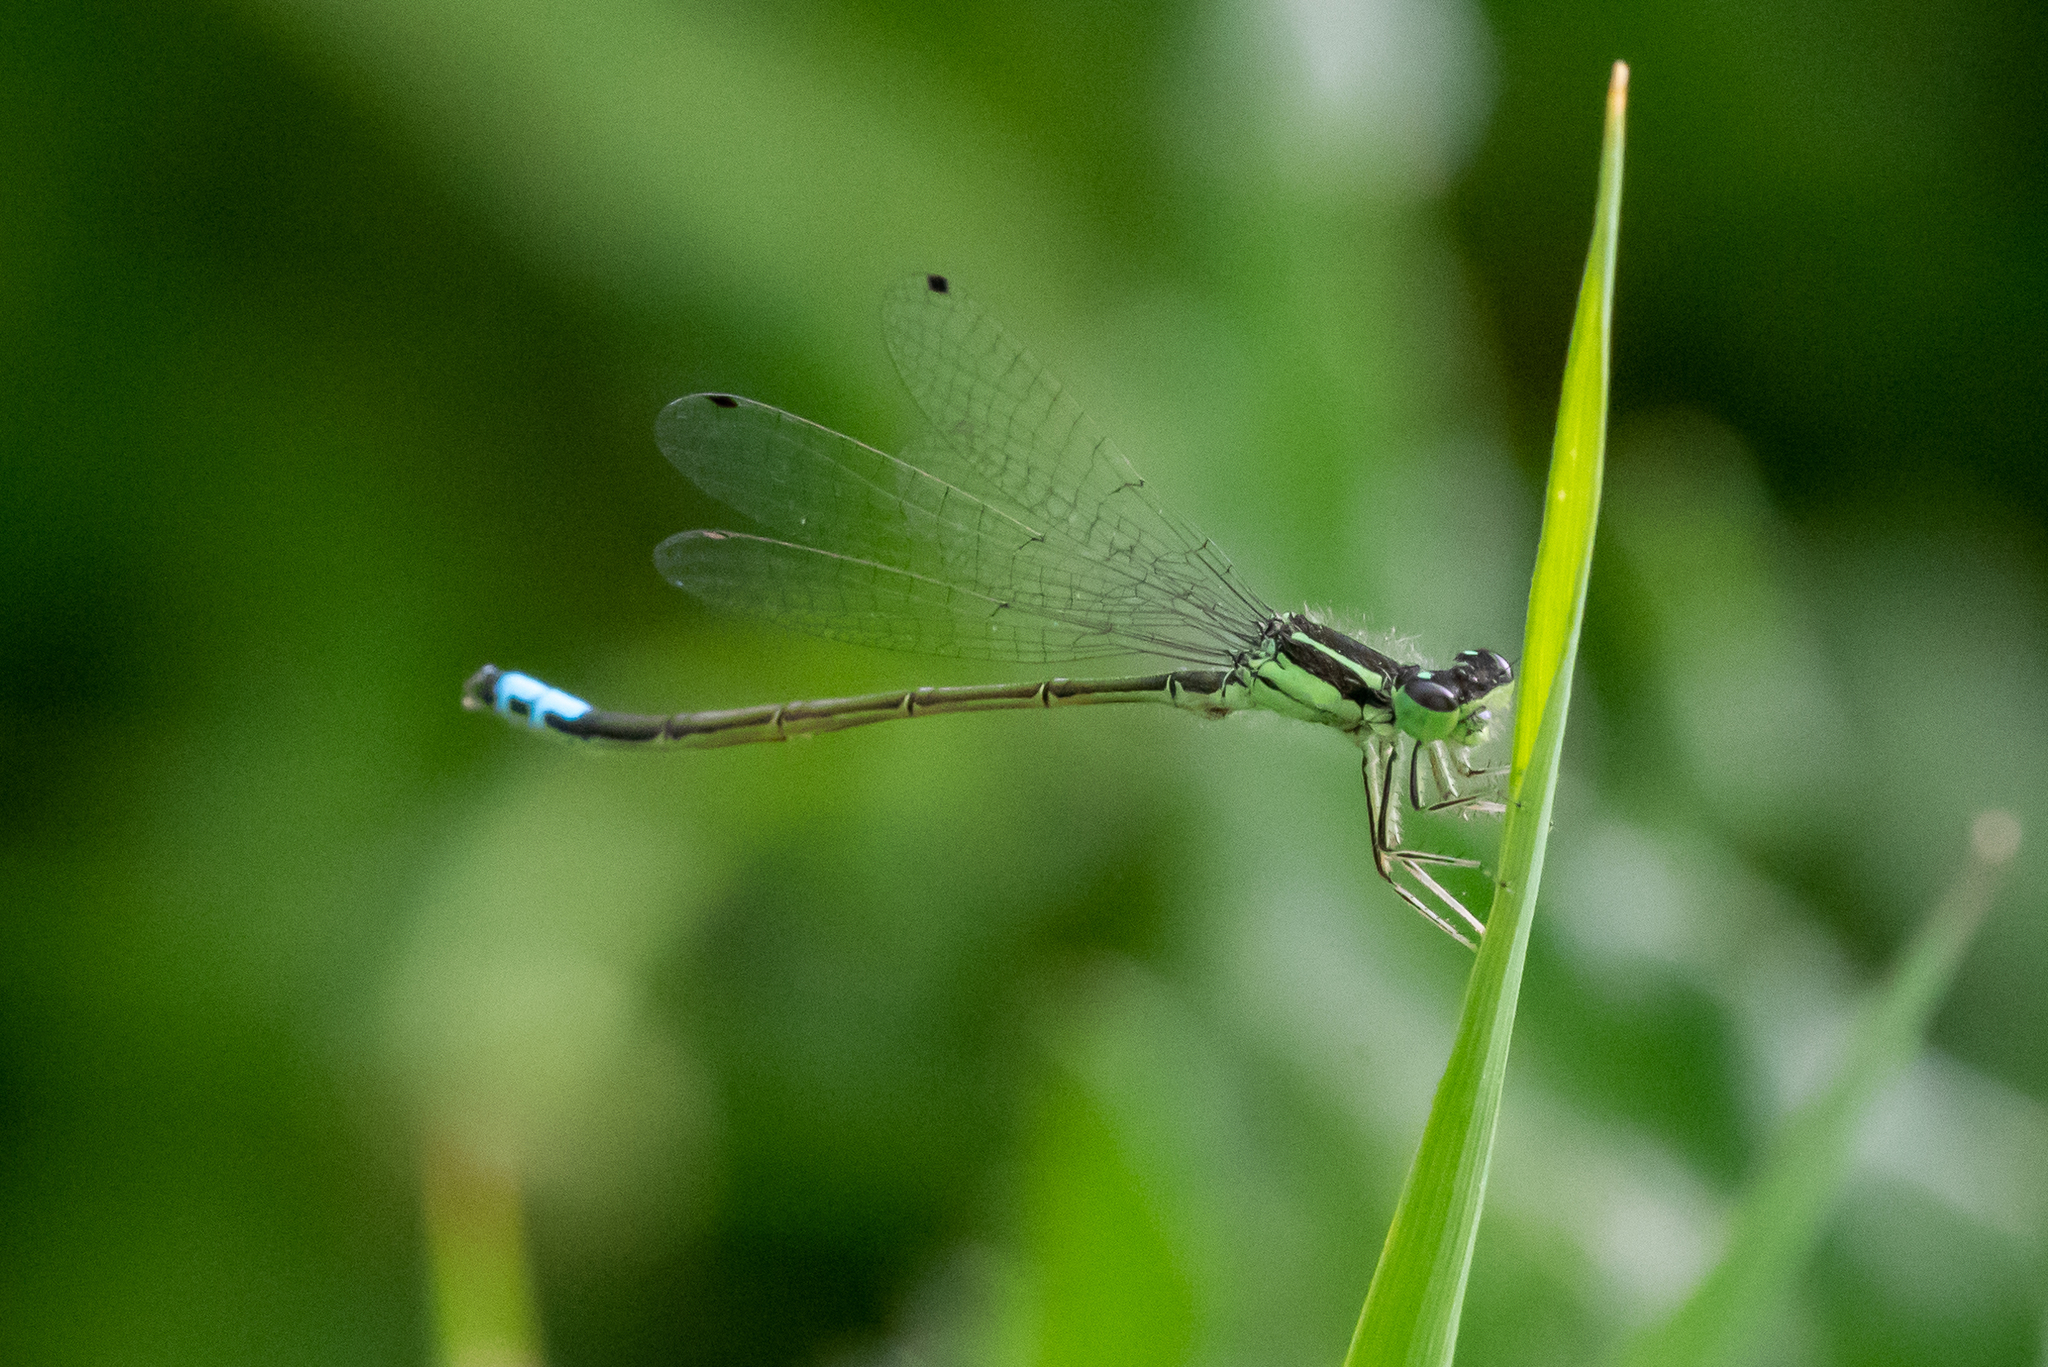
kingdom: Animalia
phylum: Arthropoda
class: Insecta
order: Odonata
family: Coenagrionidae
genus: Ischnura
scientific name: Ischnura verticalis
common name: Eastern forktail
